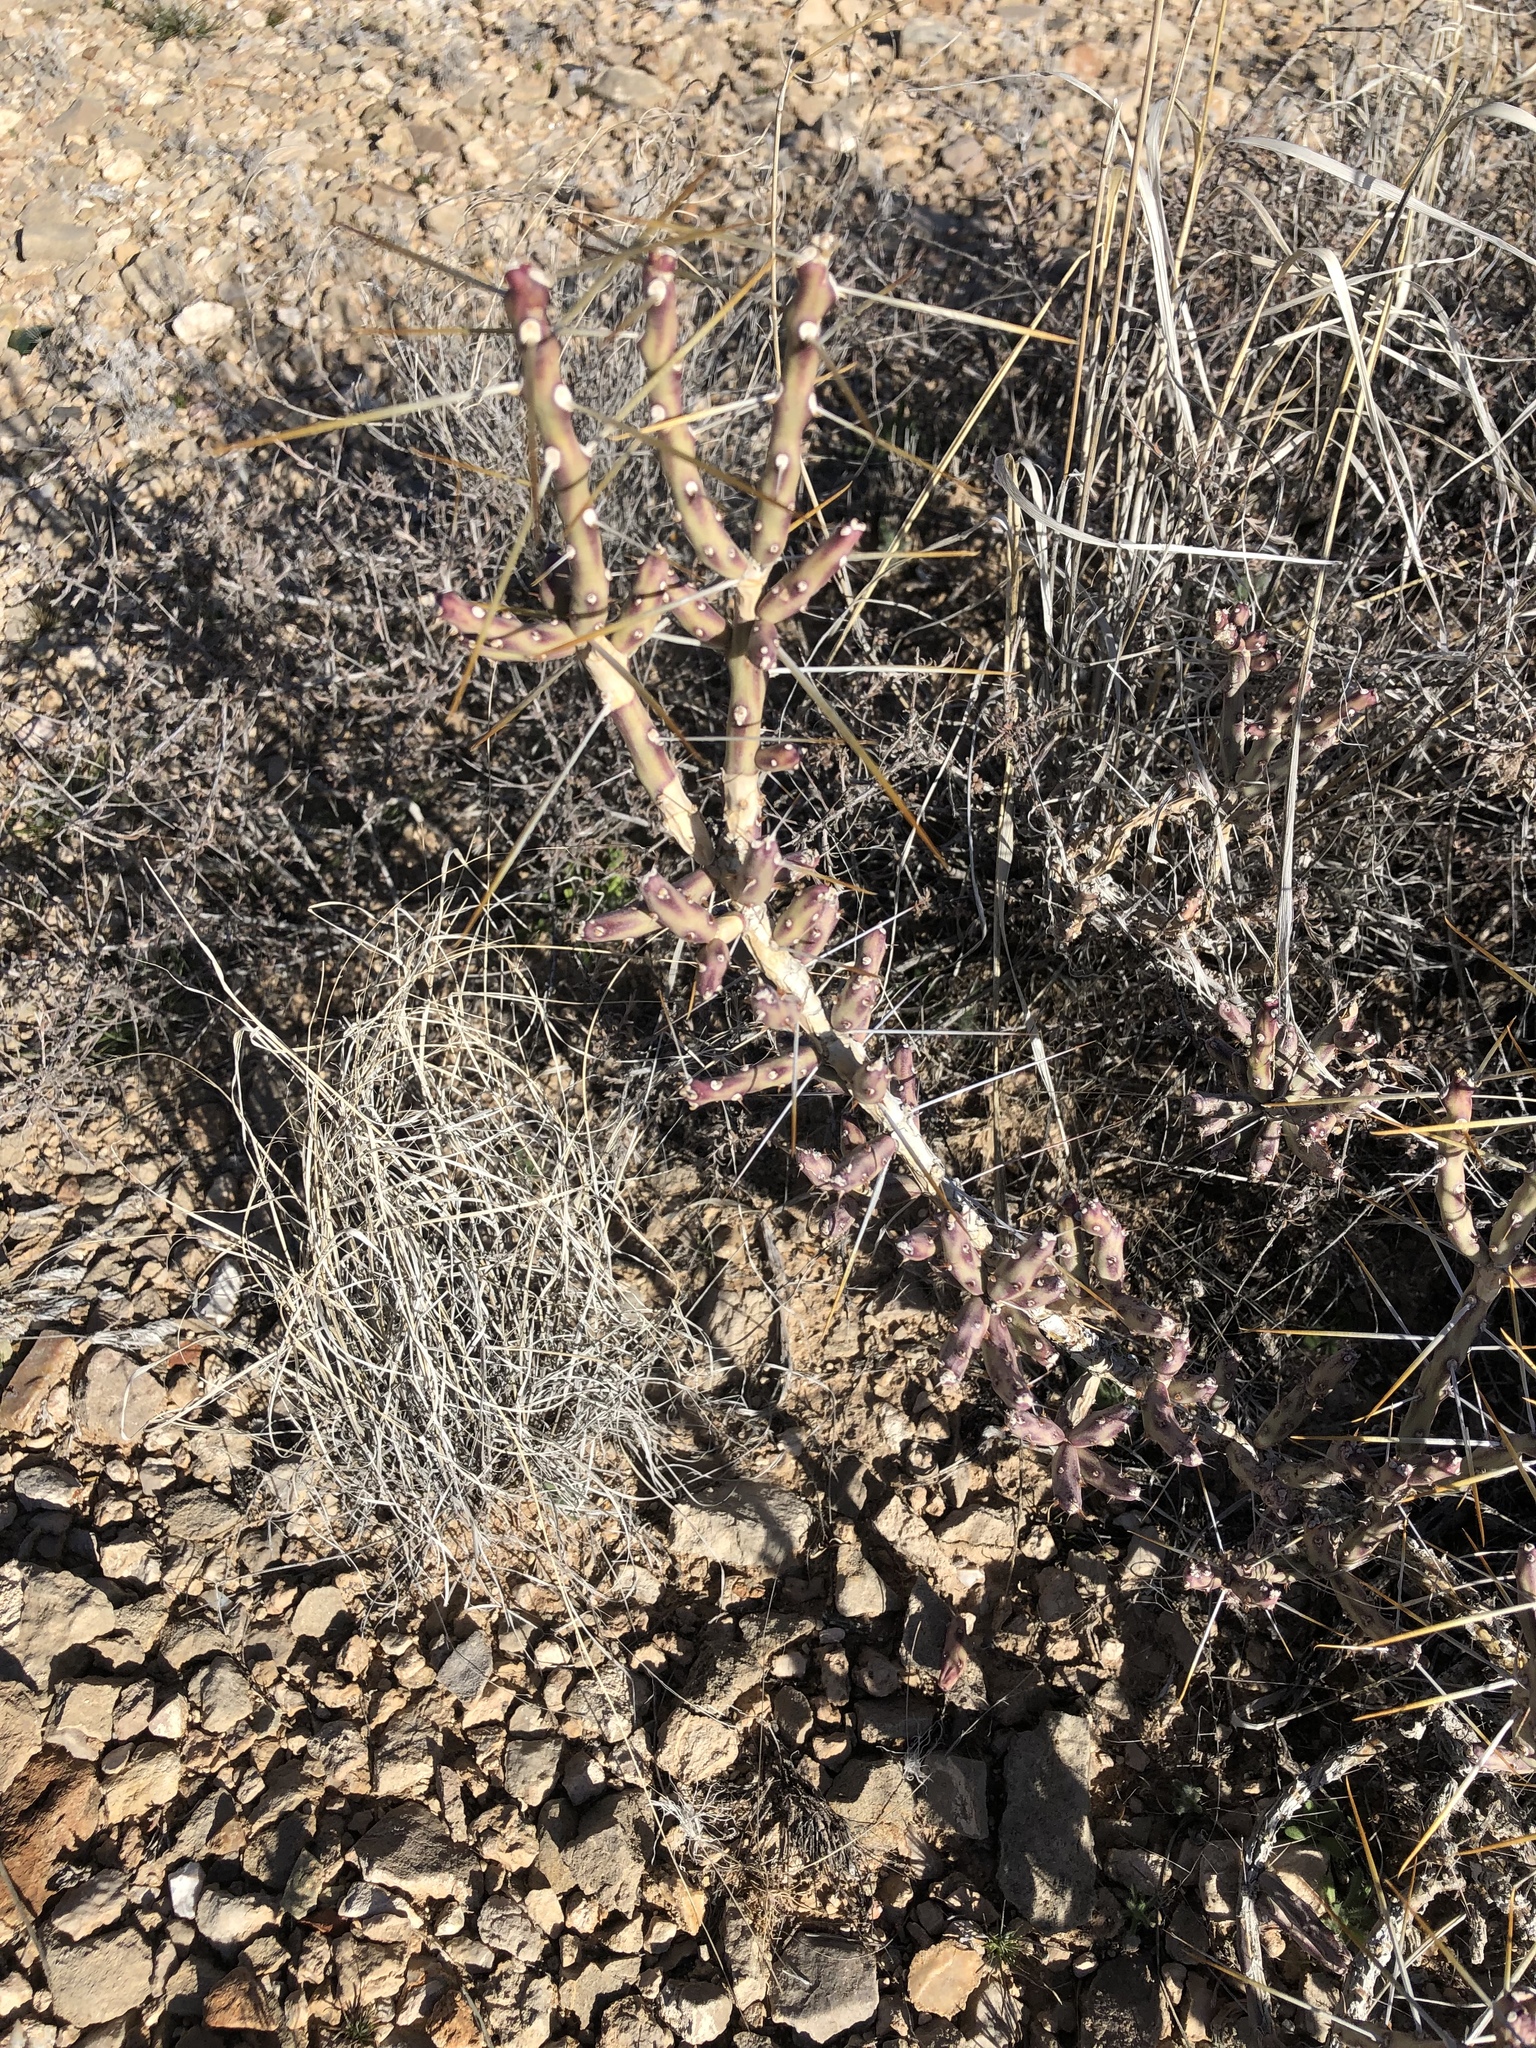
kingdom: Plantae
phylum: Tracheophyta
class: Magnoliopsida
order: Caryophyllales
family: Cactaceae
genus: Cylindropuntia
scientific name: Cylindropuntia leptocaulis
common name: Christmas cactus
